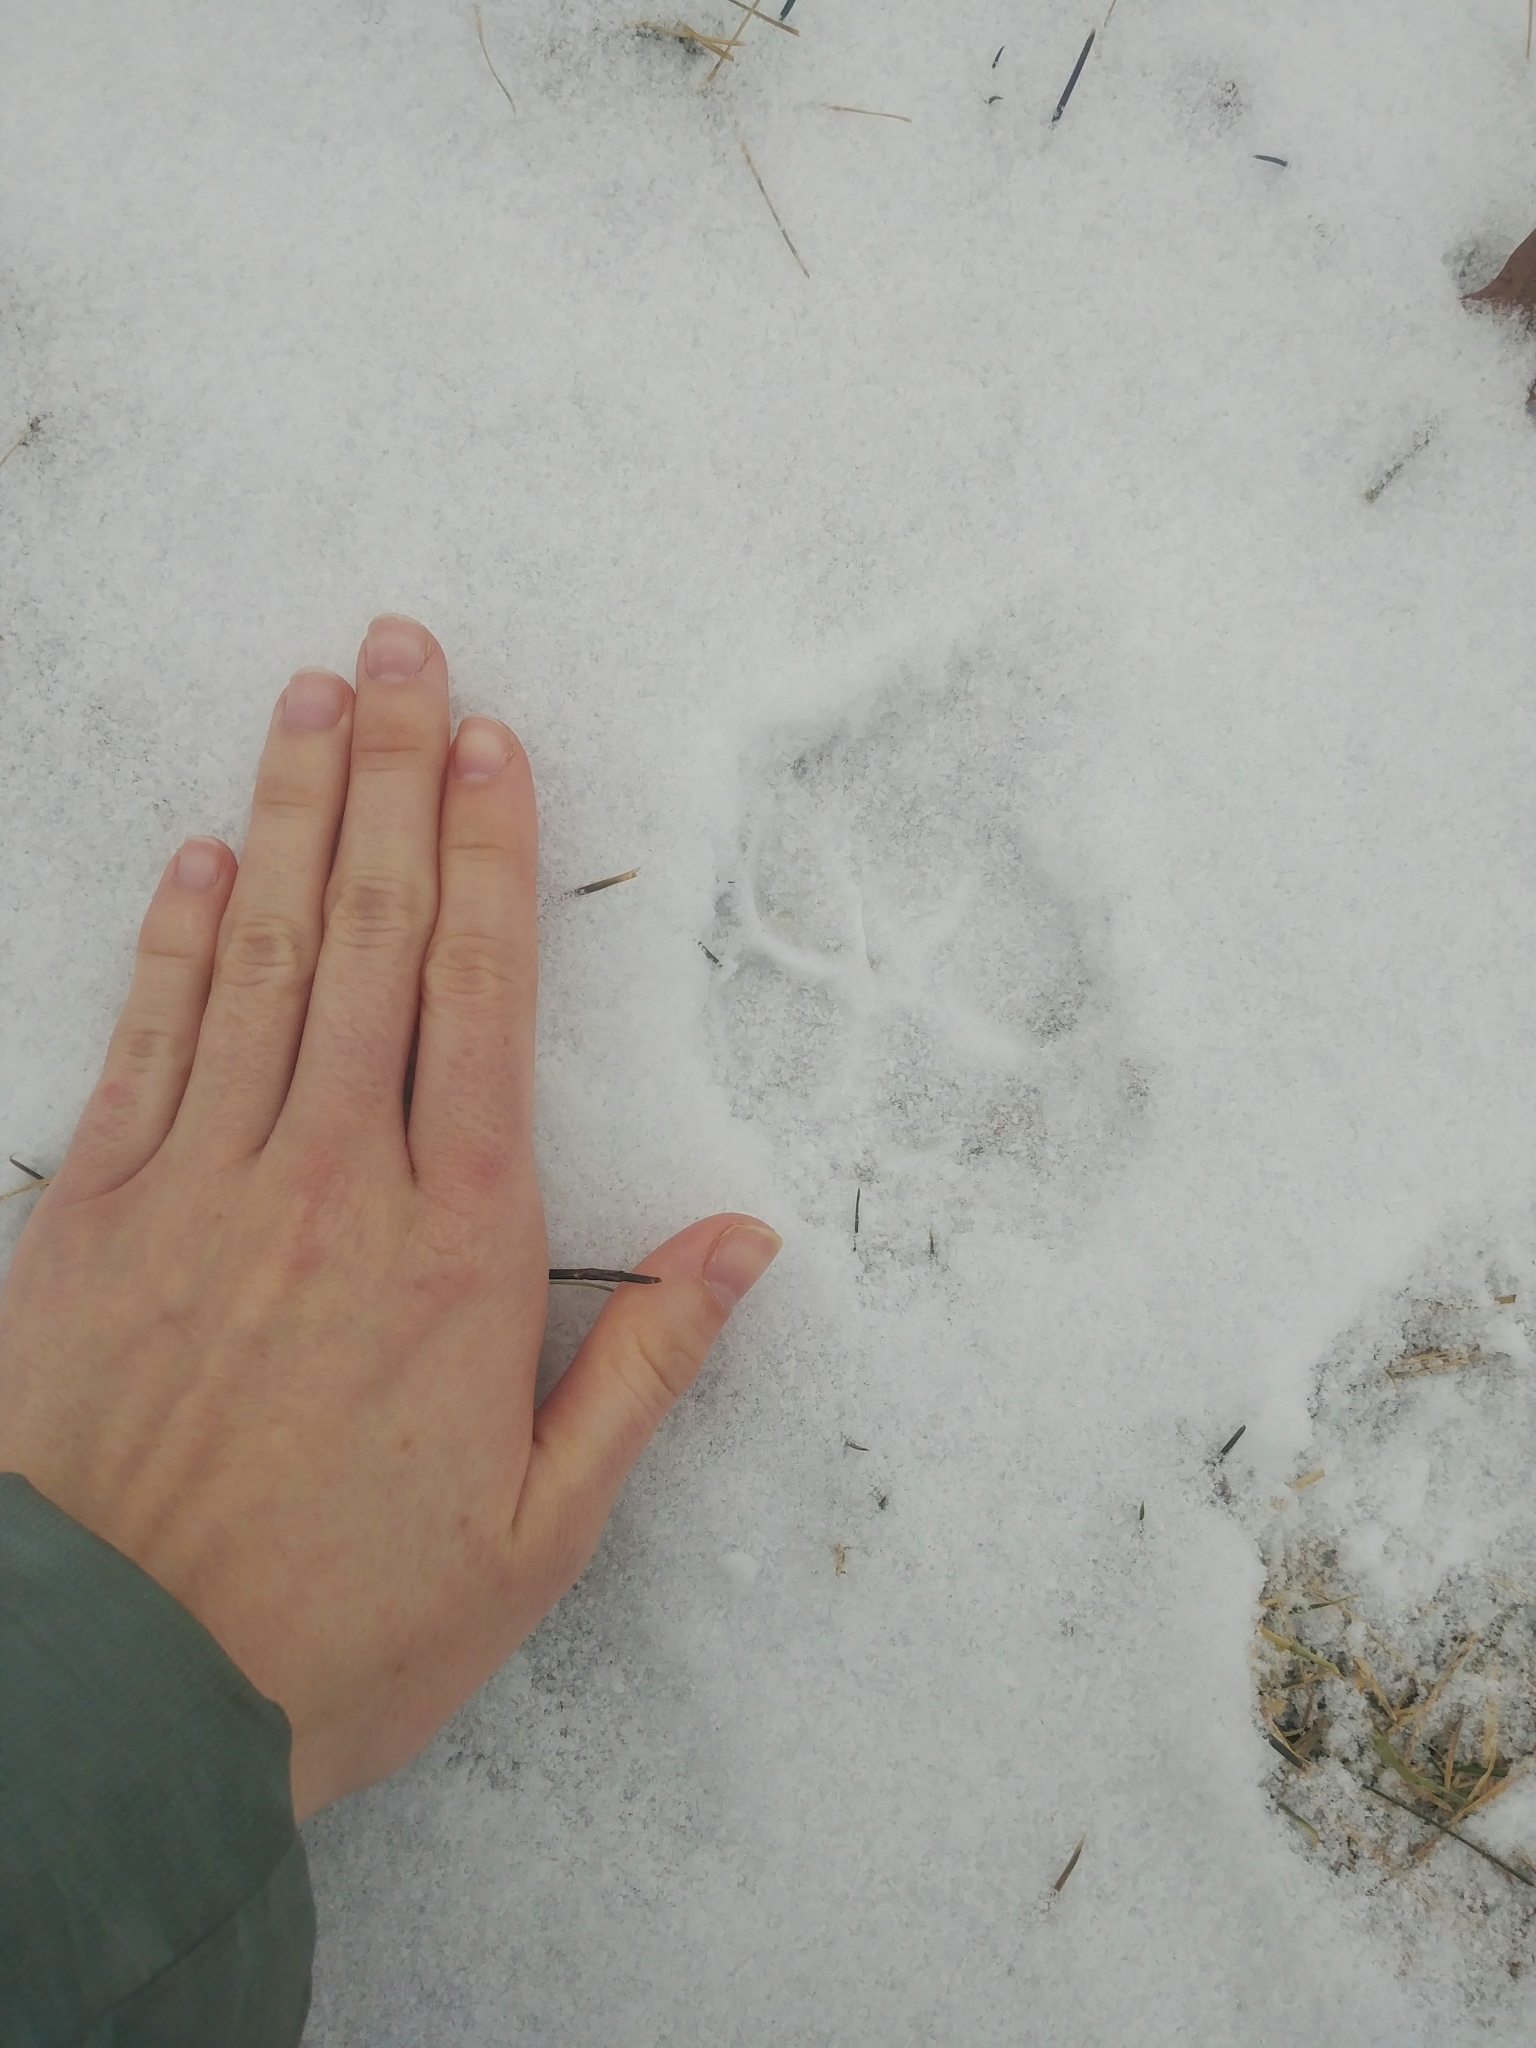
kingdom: Animalia
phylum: Chordata
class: Mammalia
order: Carnivora
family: Canidae
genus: Canis
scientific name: Canis latrans
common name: Coyote
